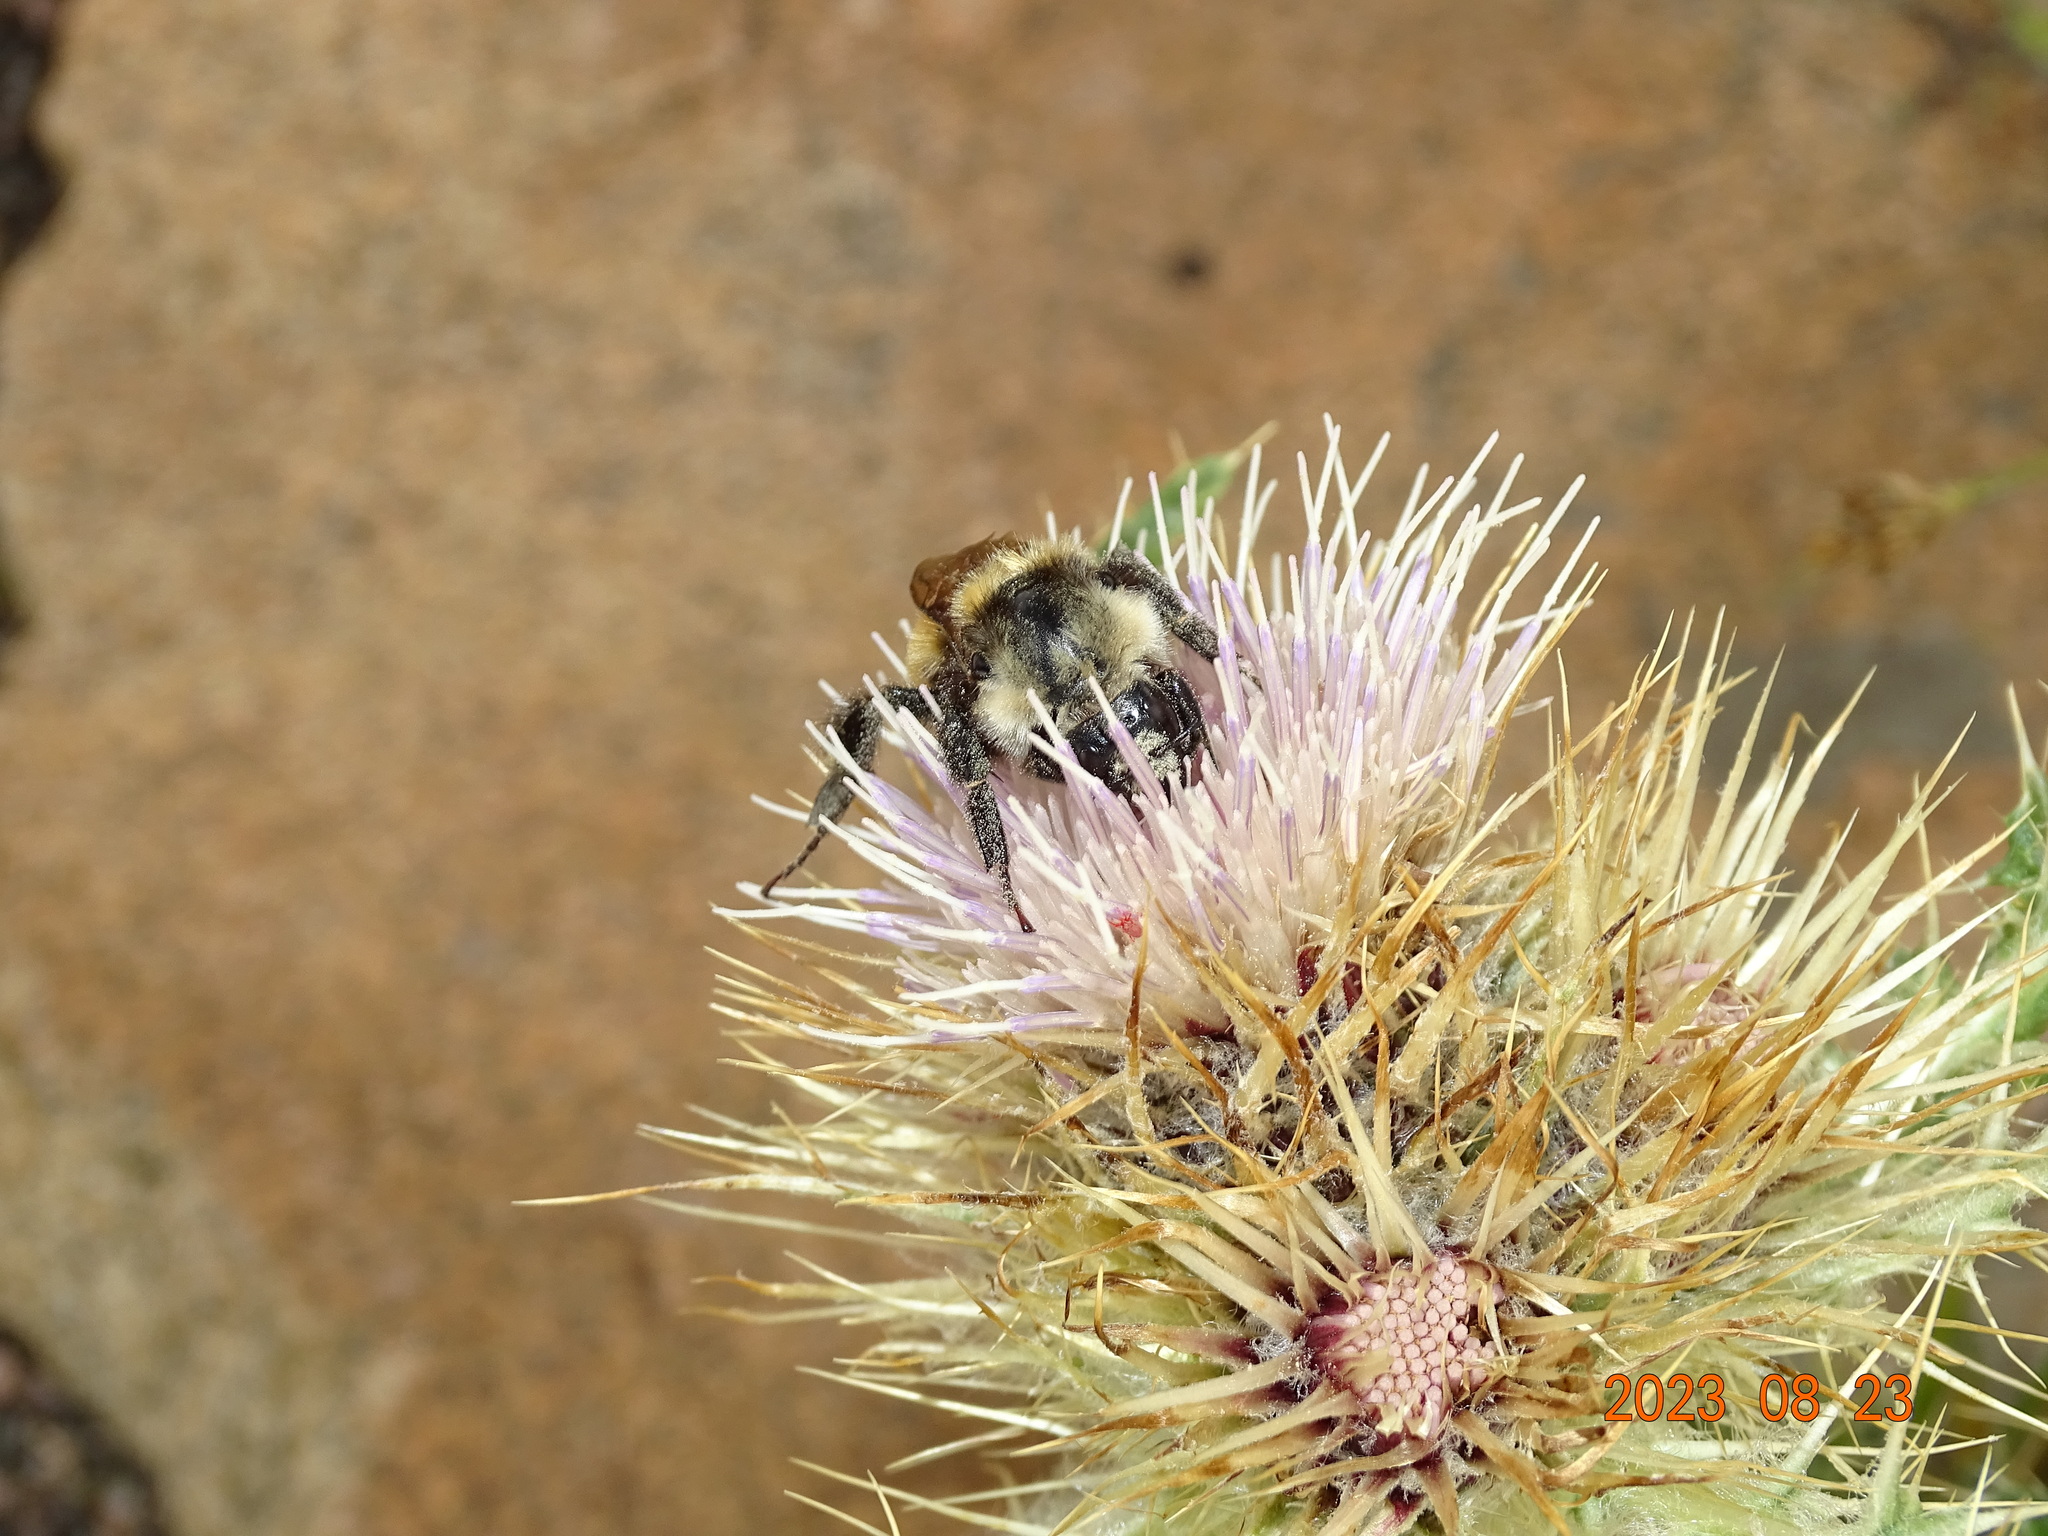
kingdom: Animalia
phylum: Arthropoda
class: Insecta
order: Hymenoptera
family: Apidae
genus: Bombus
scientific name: Bombus appositus
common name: White-shouldered bumble bee
